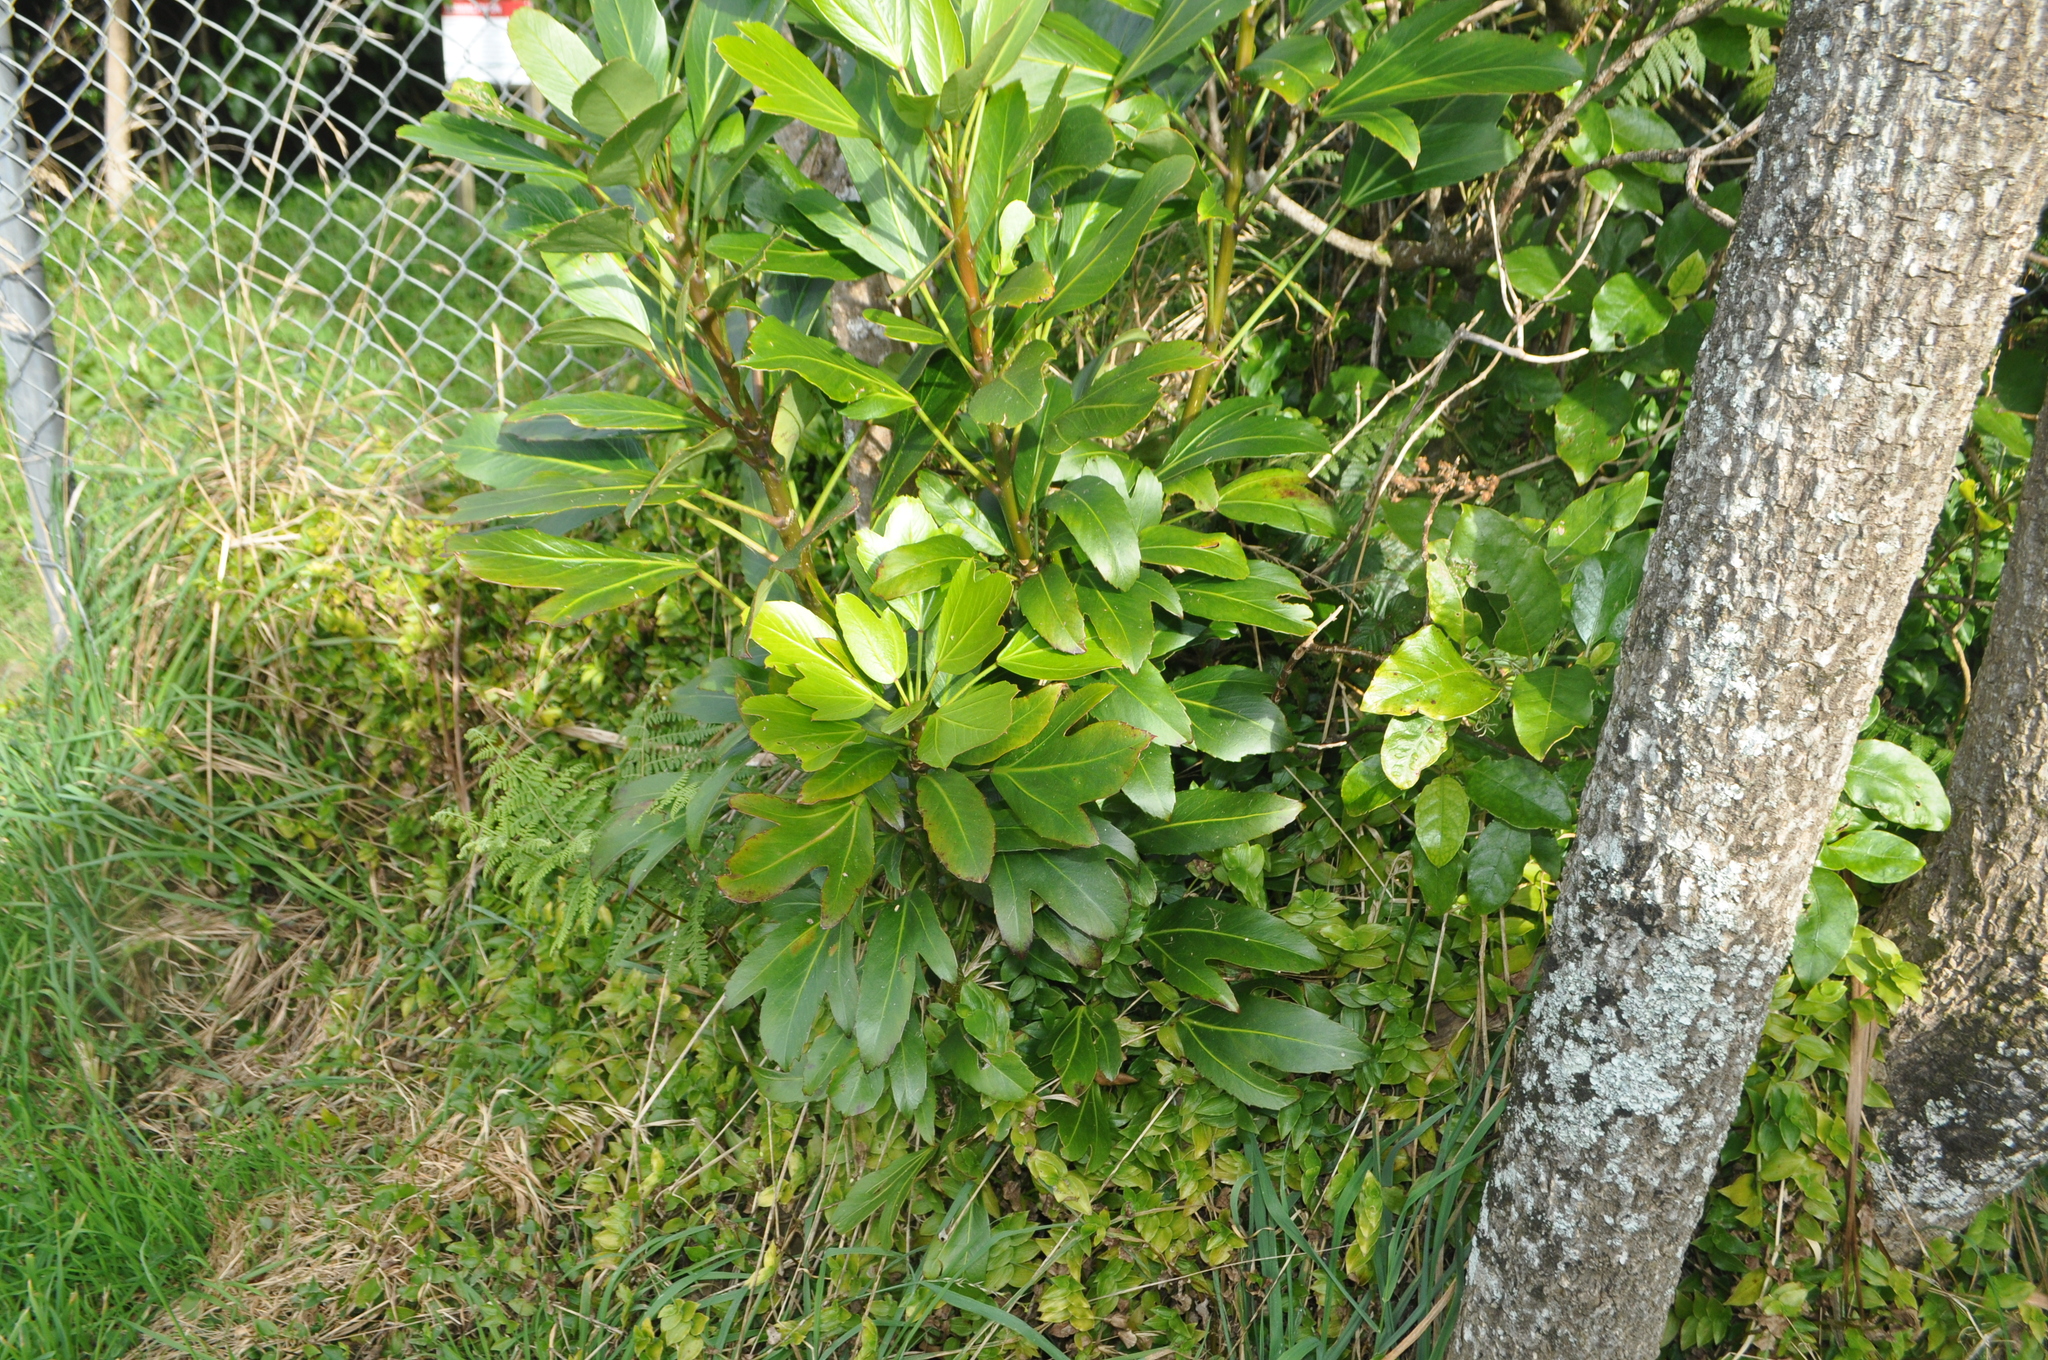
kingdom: Plantae
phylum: Tracheophyta
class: Magnoliopsida
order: Apiales
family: Araliaceae
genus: Pseudopanax
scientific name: Pseudopanax
